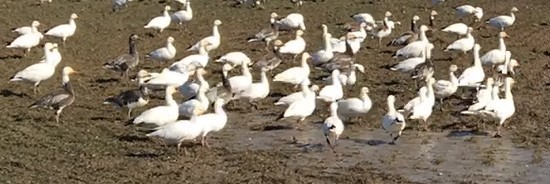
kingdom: Animalia
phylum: Chordata
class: Aves
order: Anseriformes
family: Anatidae
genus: Anser
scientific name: Anser caerulescens
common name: Snow goose
